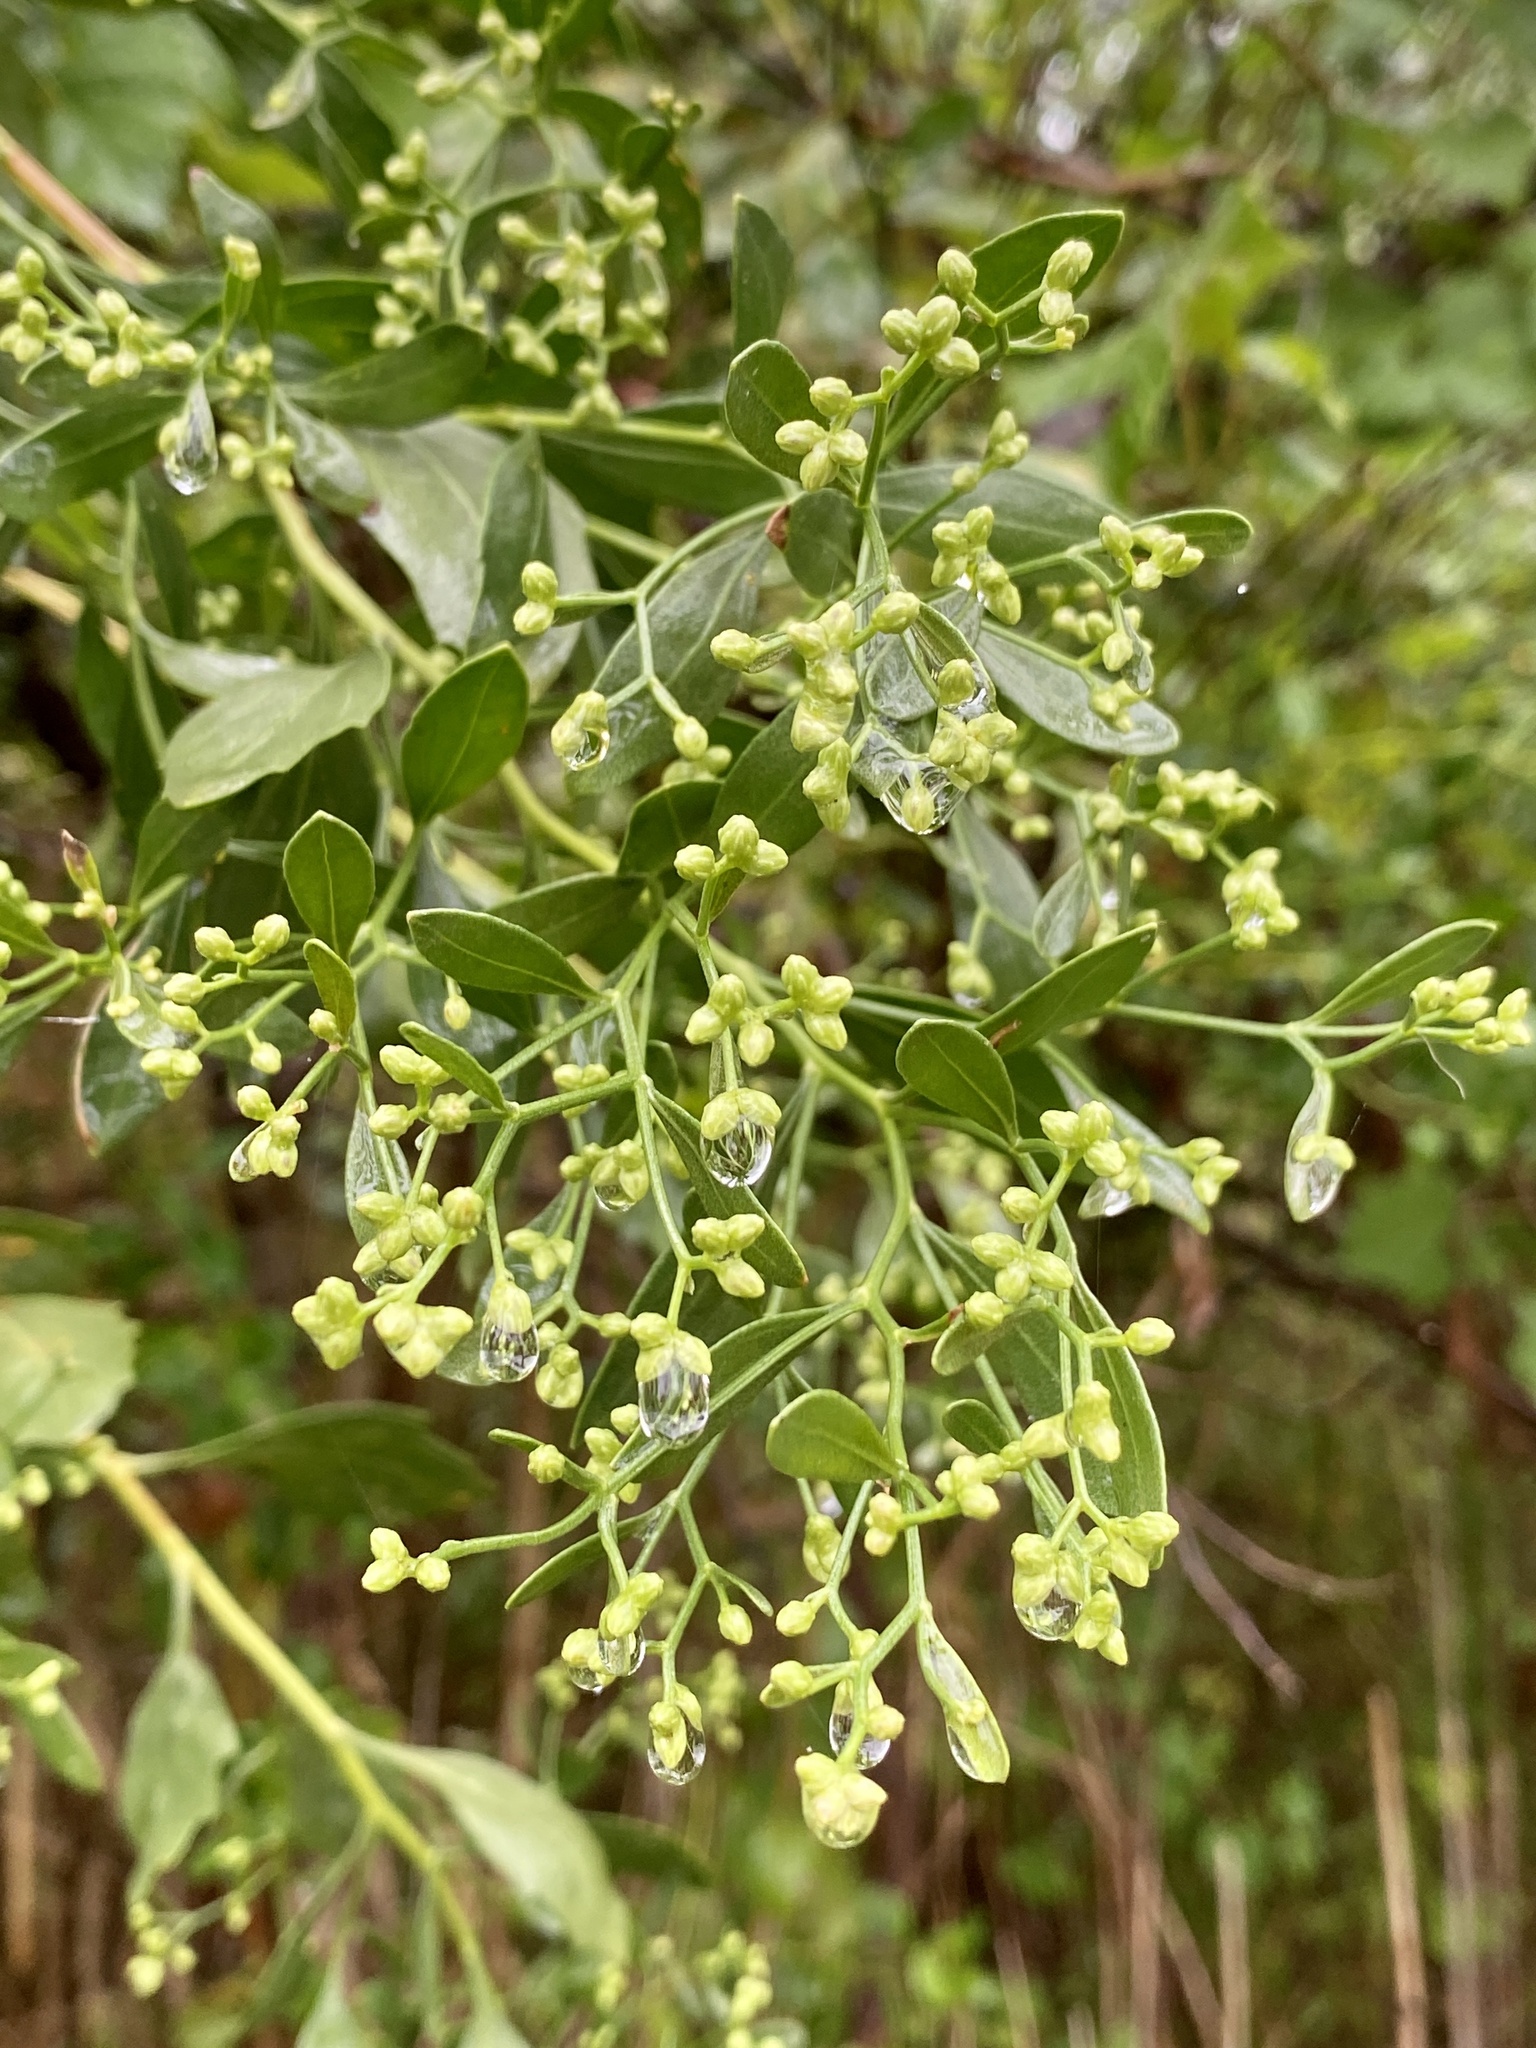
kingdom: Plantae
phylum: Tracheophyta
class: Magnoliopsida
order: Asterales
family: Asteraceae
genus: Baccharis
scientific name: Baccharis halimifolia
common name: Eastern baccharis
